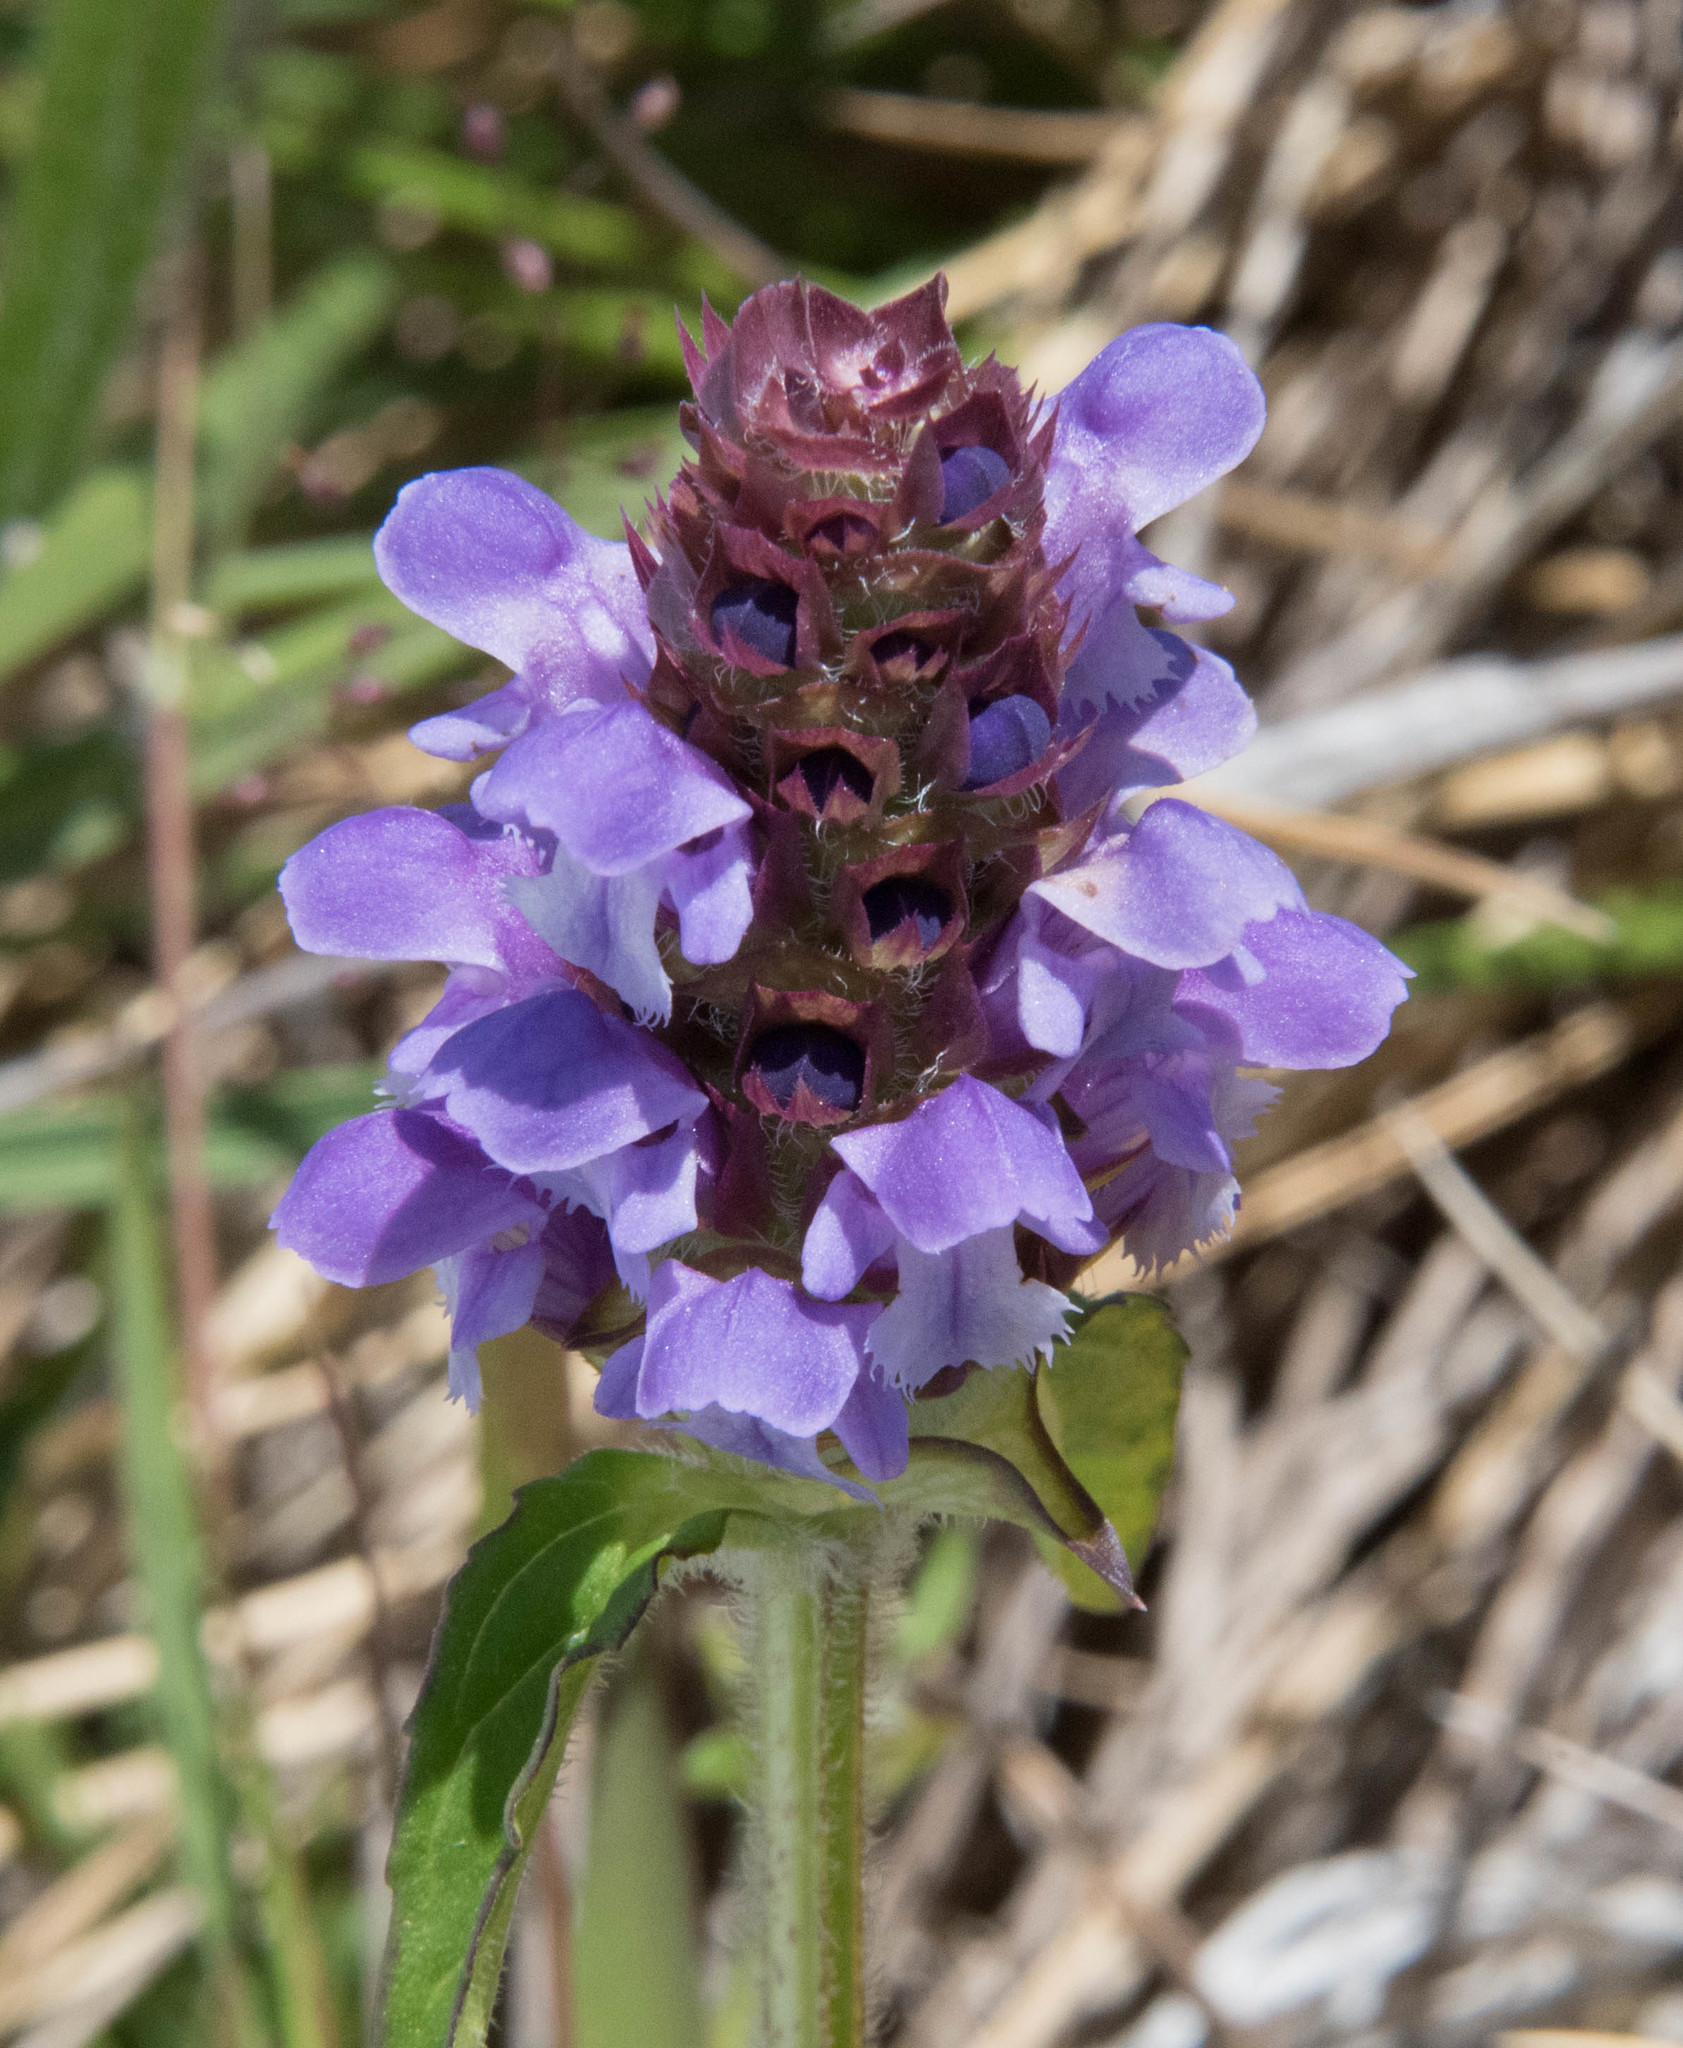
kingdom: Plantae
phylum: Tracheophyta
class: Magnoliopsida
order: Lamiales
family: Lamiaceae
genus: Prunella
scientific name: Prunella vulgaris
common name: Heal-all
